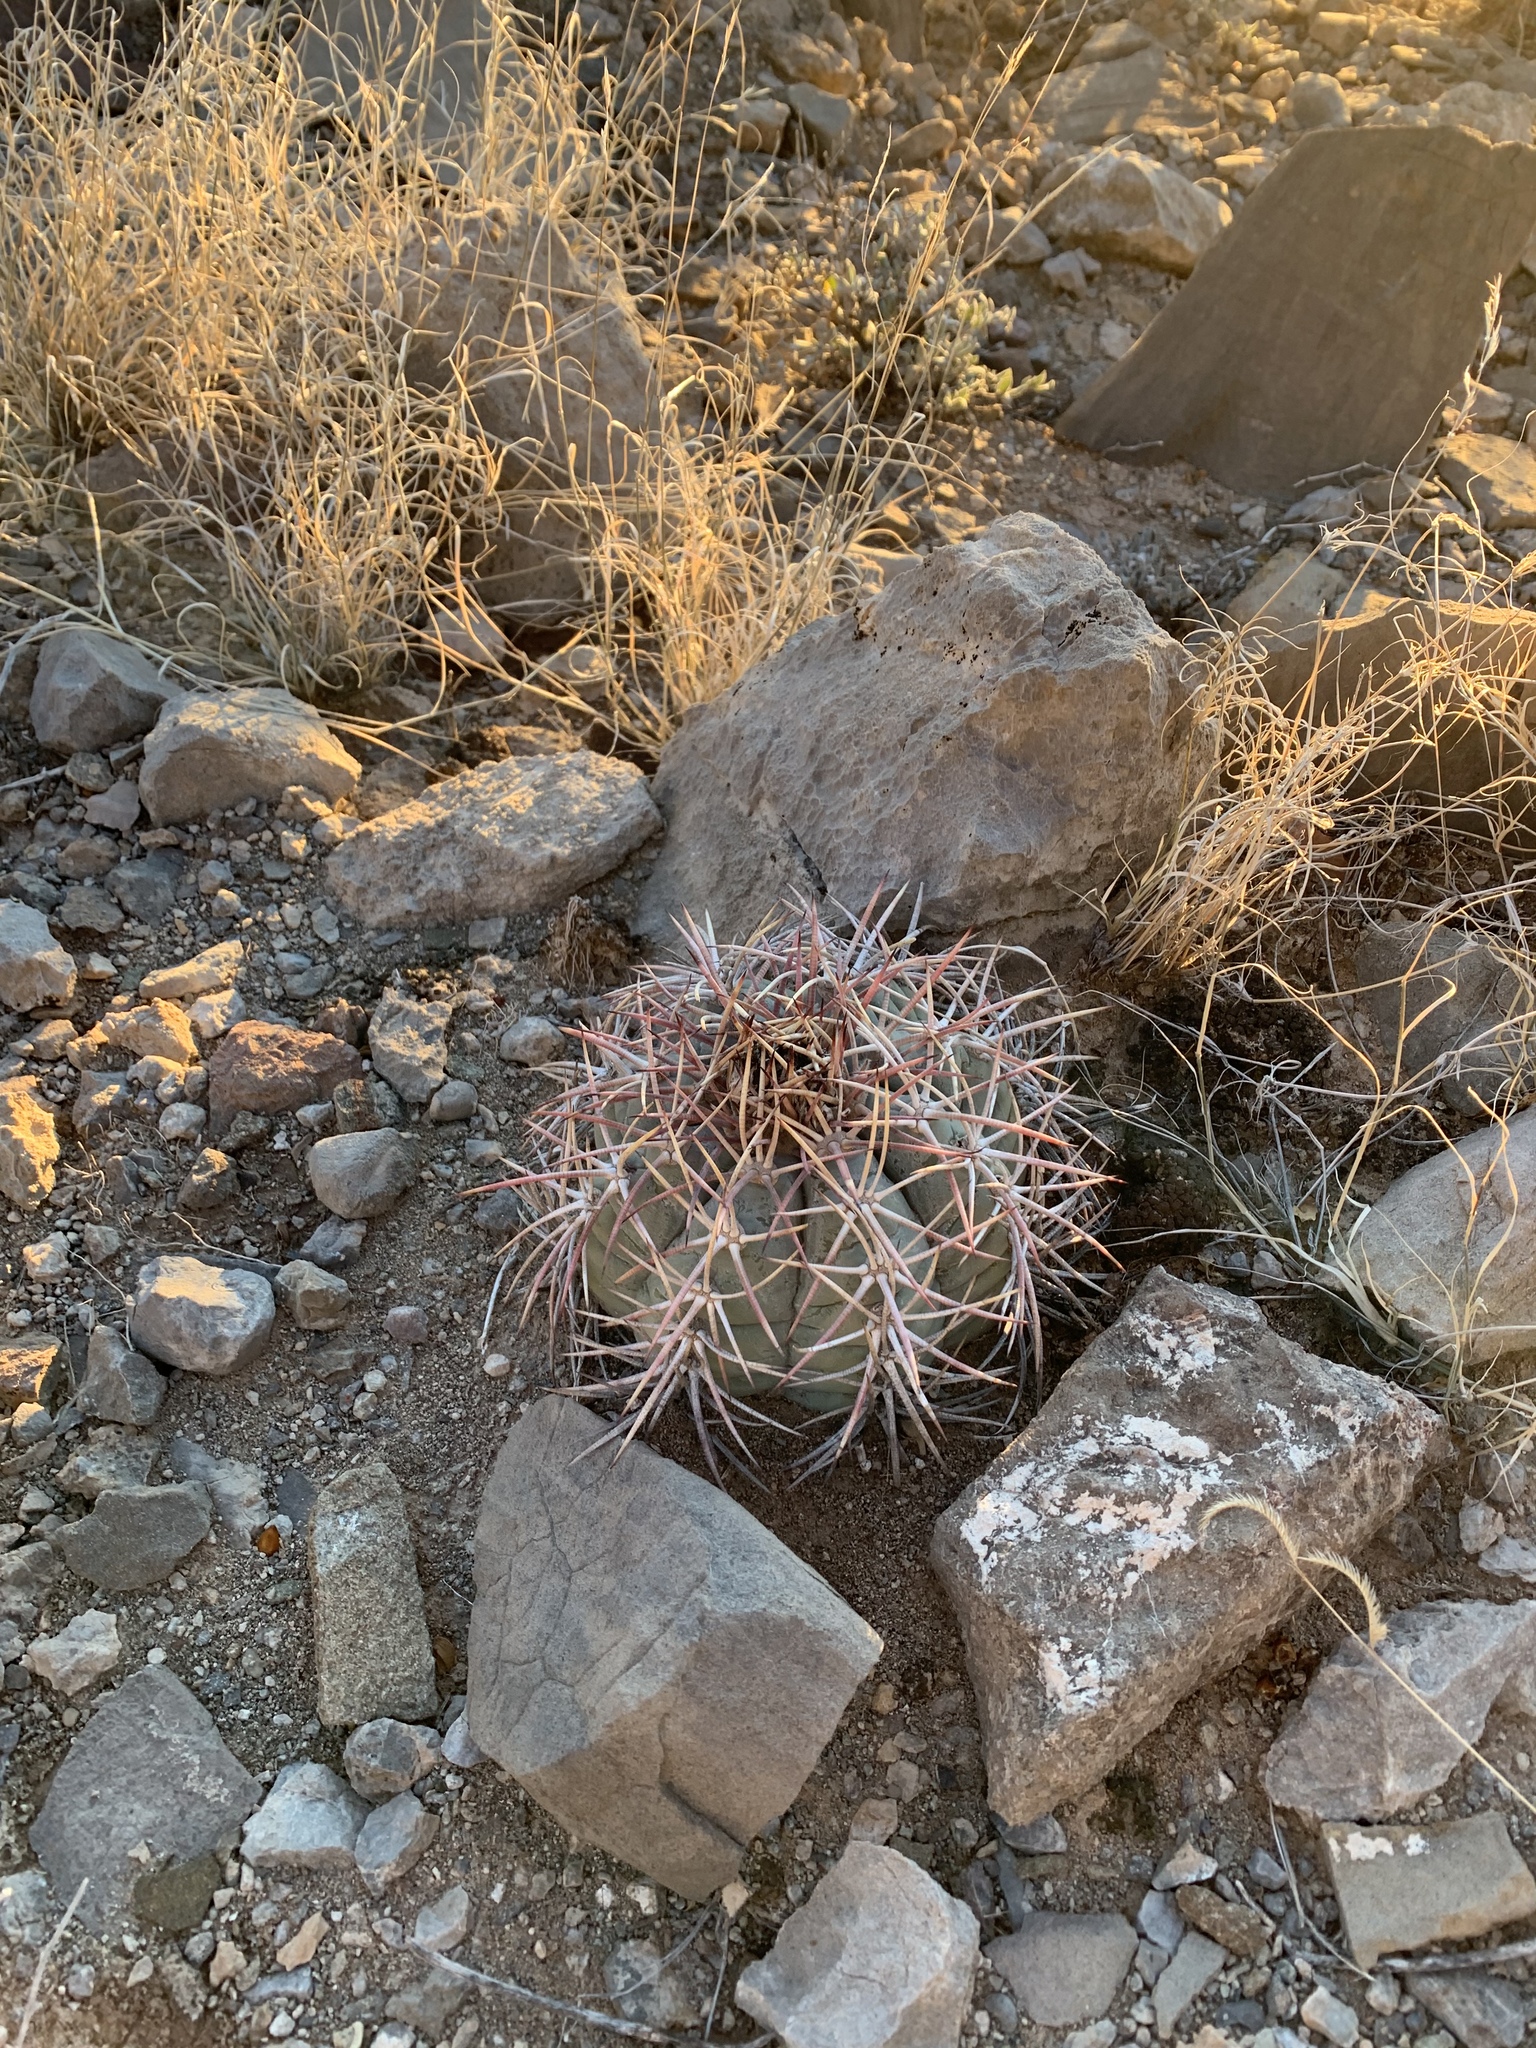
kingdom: Plantae
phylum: Tracheophyta
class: Magnoliopsida
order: Caryophyllales
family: Cactaceae
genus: Echinocactus
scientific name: Echinocactus horizonthalonius
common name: Devilshead
